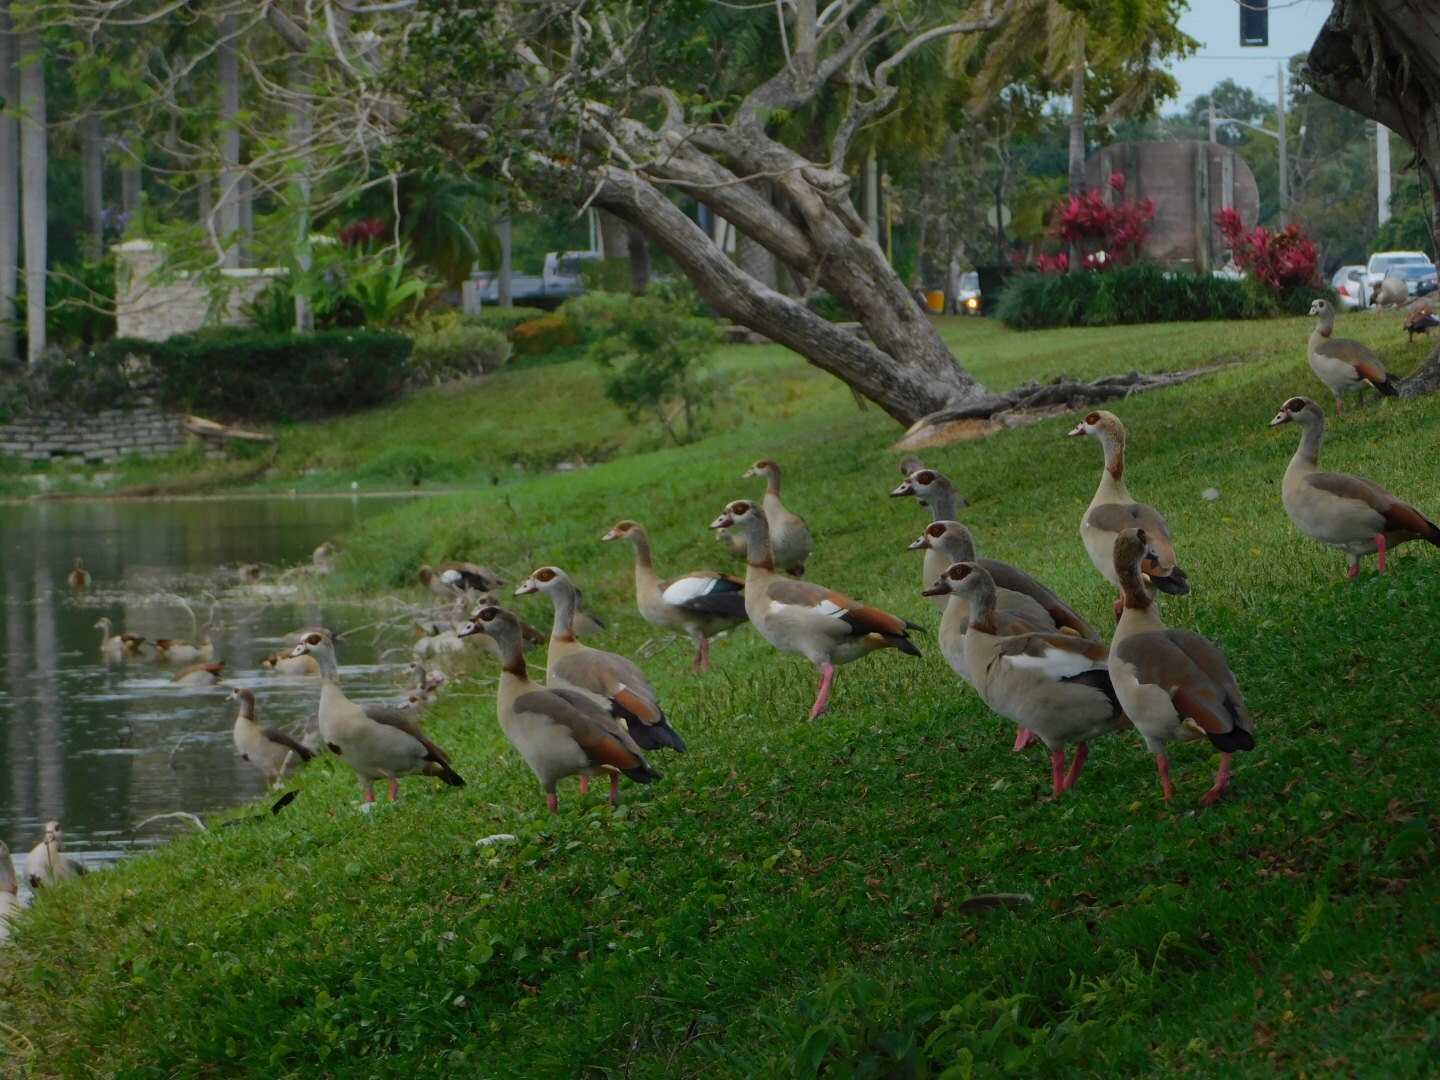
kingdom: Animalia
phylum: Chordata
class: Aves
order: Anseriformes
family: Anatidae
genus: Alopochen
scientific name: Alopochen aegyptiaca
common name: Egyptian goose
